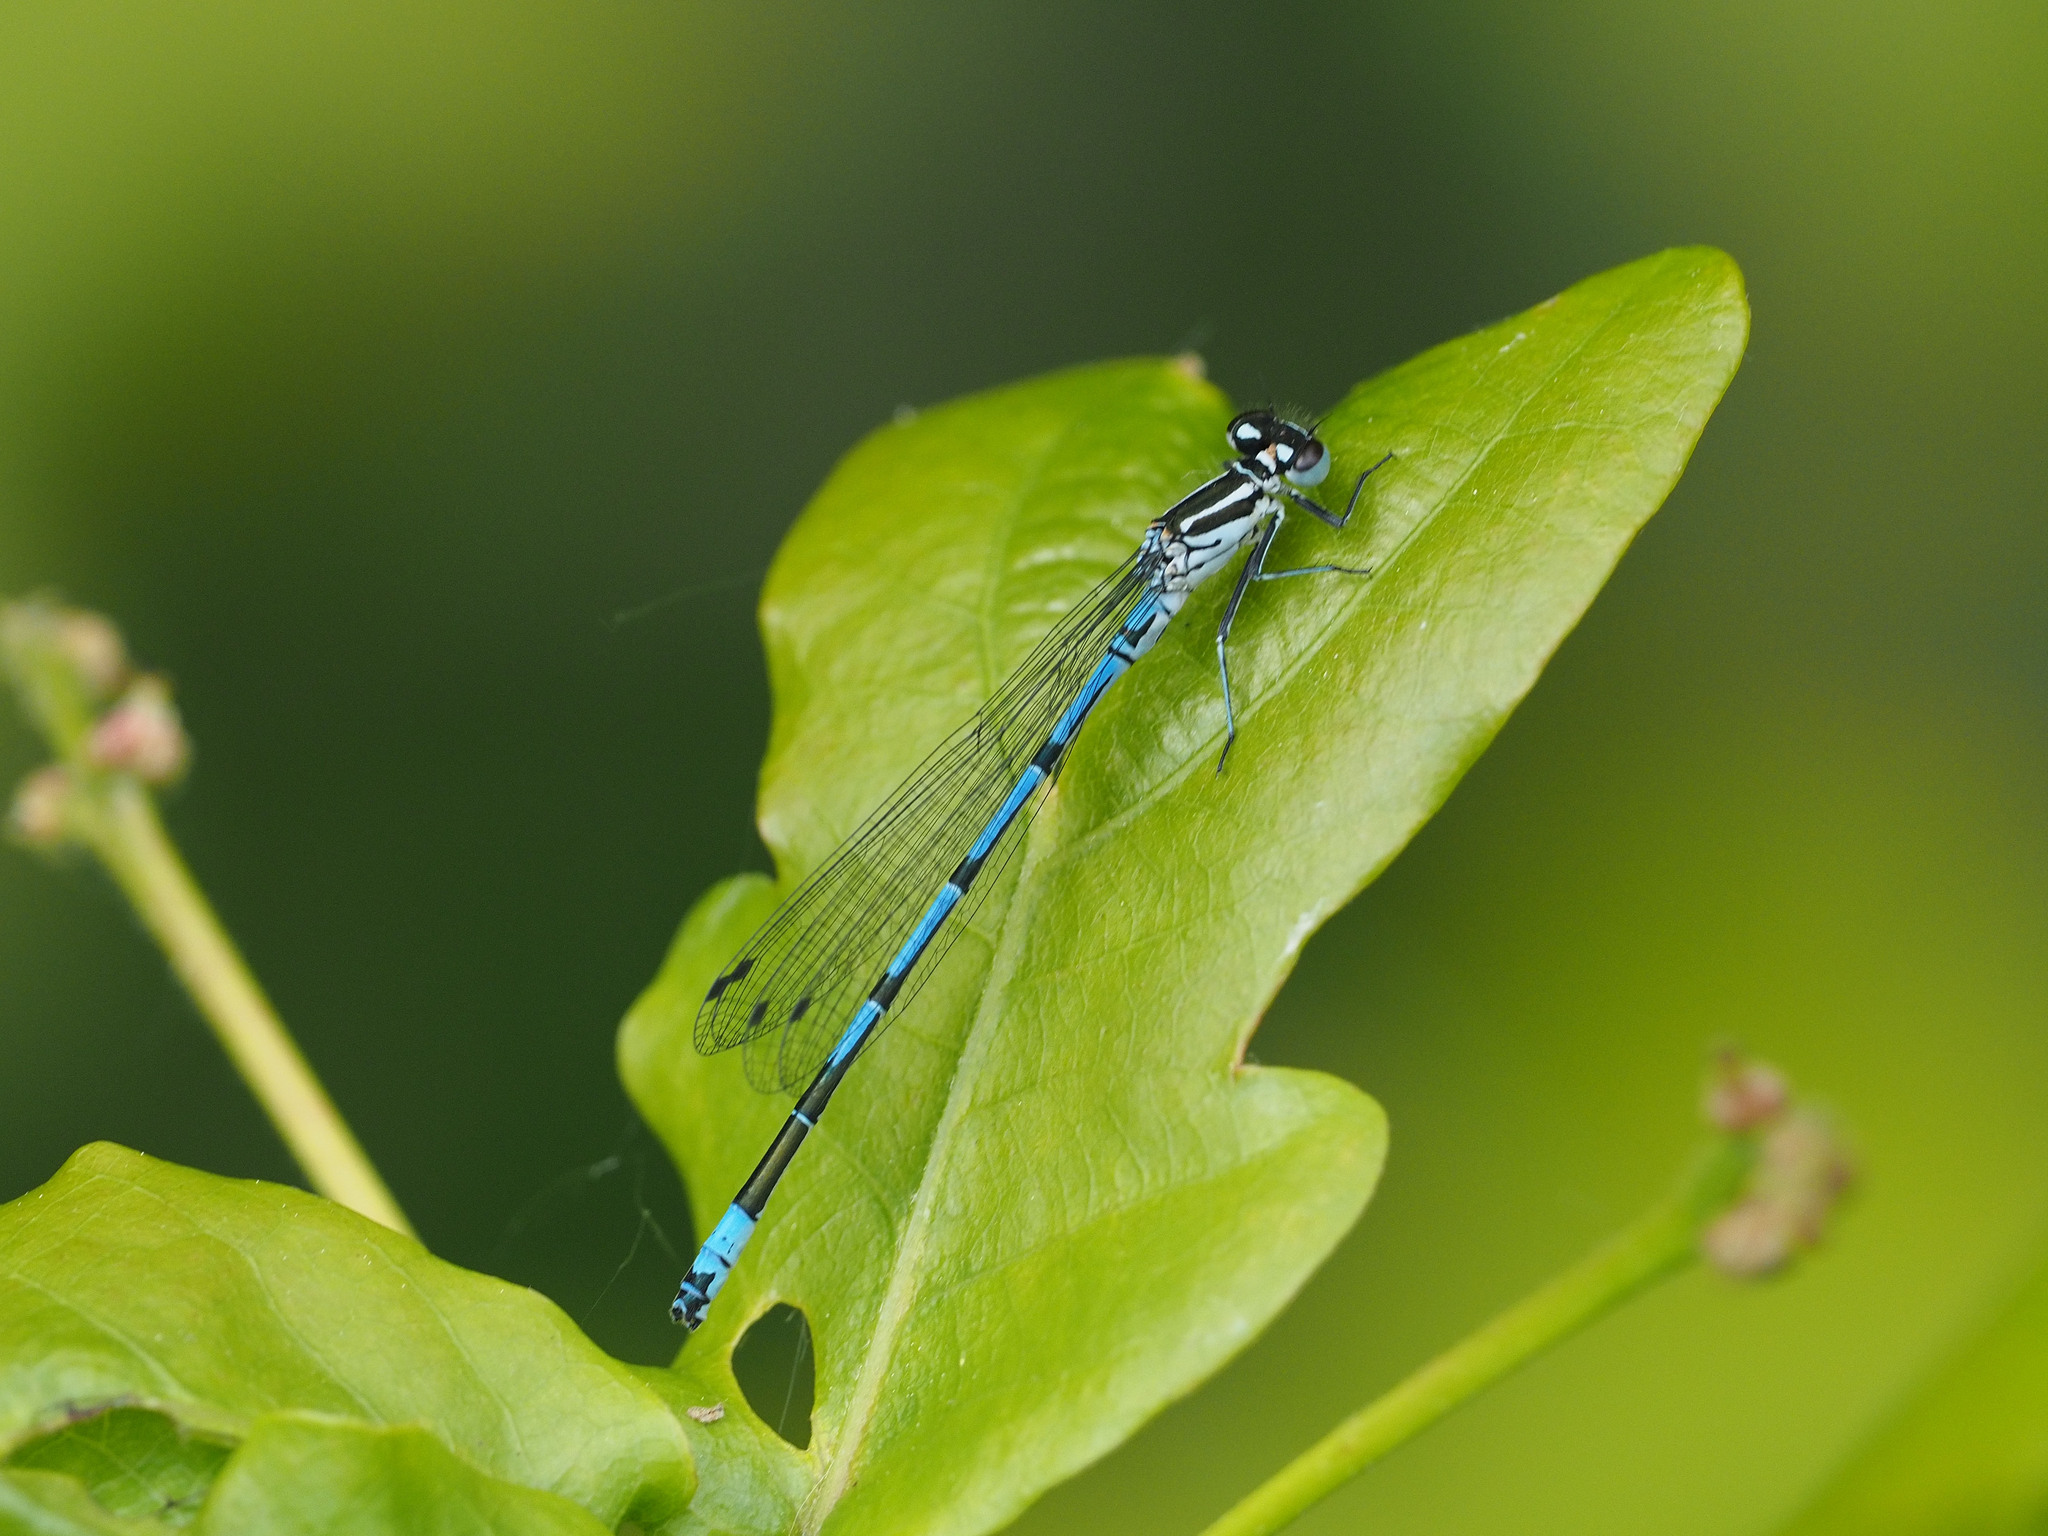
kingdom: Animalia
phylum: Arthropoda
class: Insecta
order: Odonata
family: Coenagrionidae
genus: Coenagrion
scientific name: Coenagrion puella
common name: Azure damselfly
